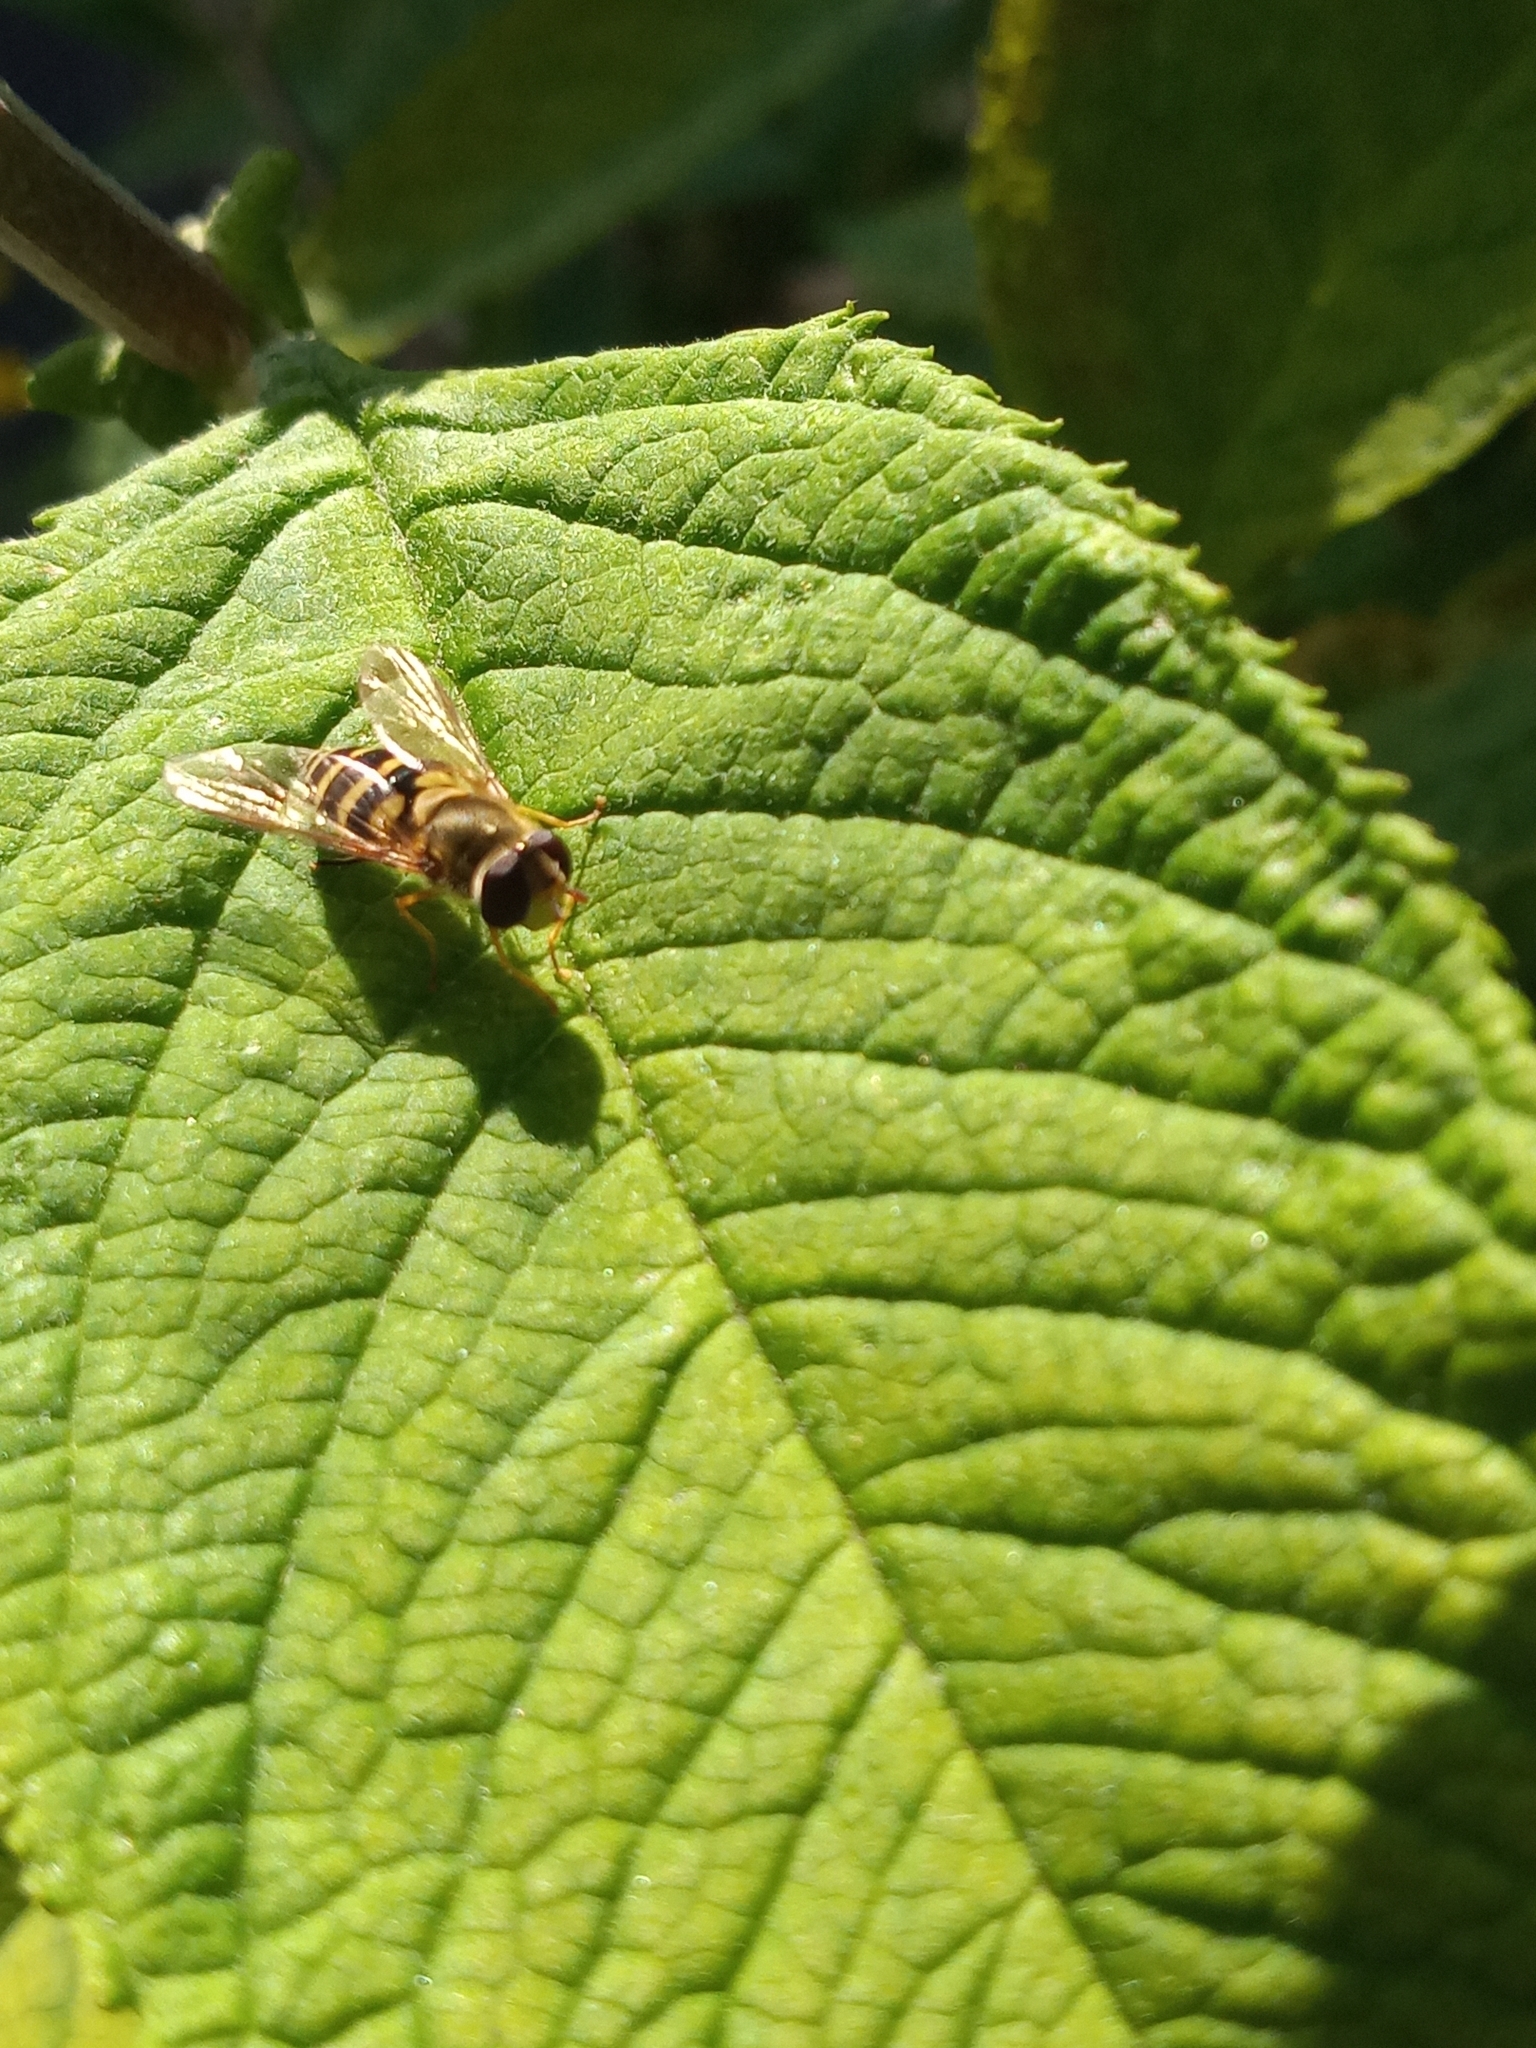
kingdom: Animalia
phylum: Arthropoda
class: Insecta
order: Diptera
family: Syrphidae
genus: Syrphus
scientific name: Syrphus
